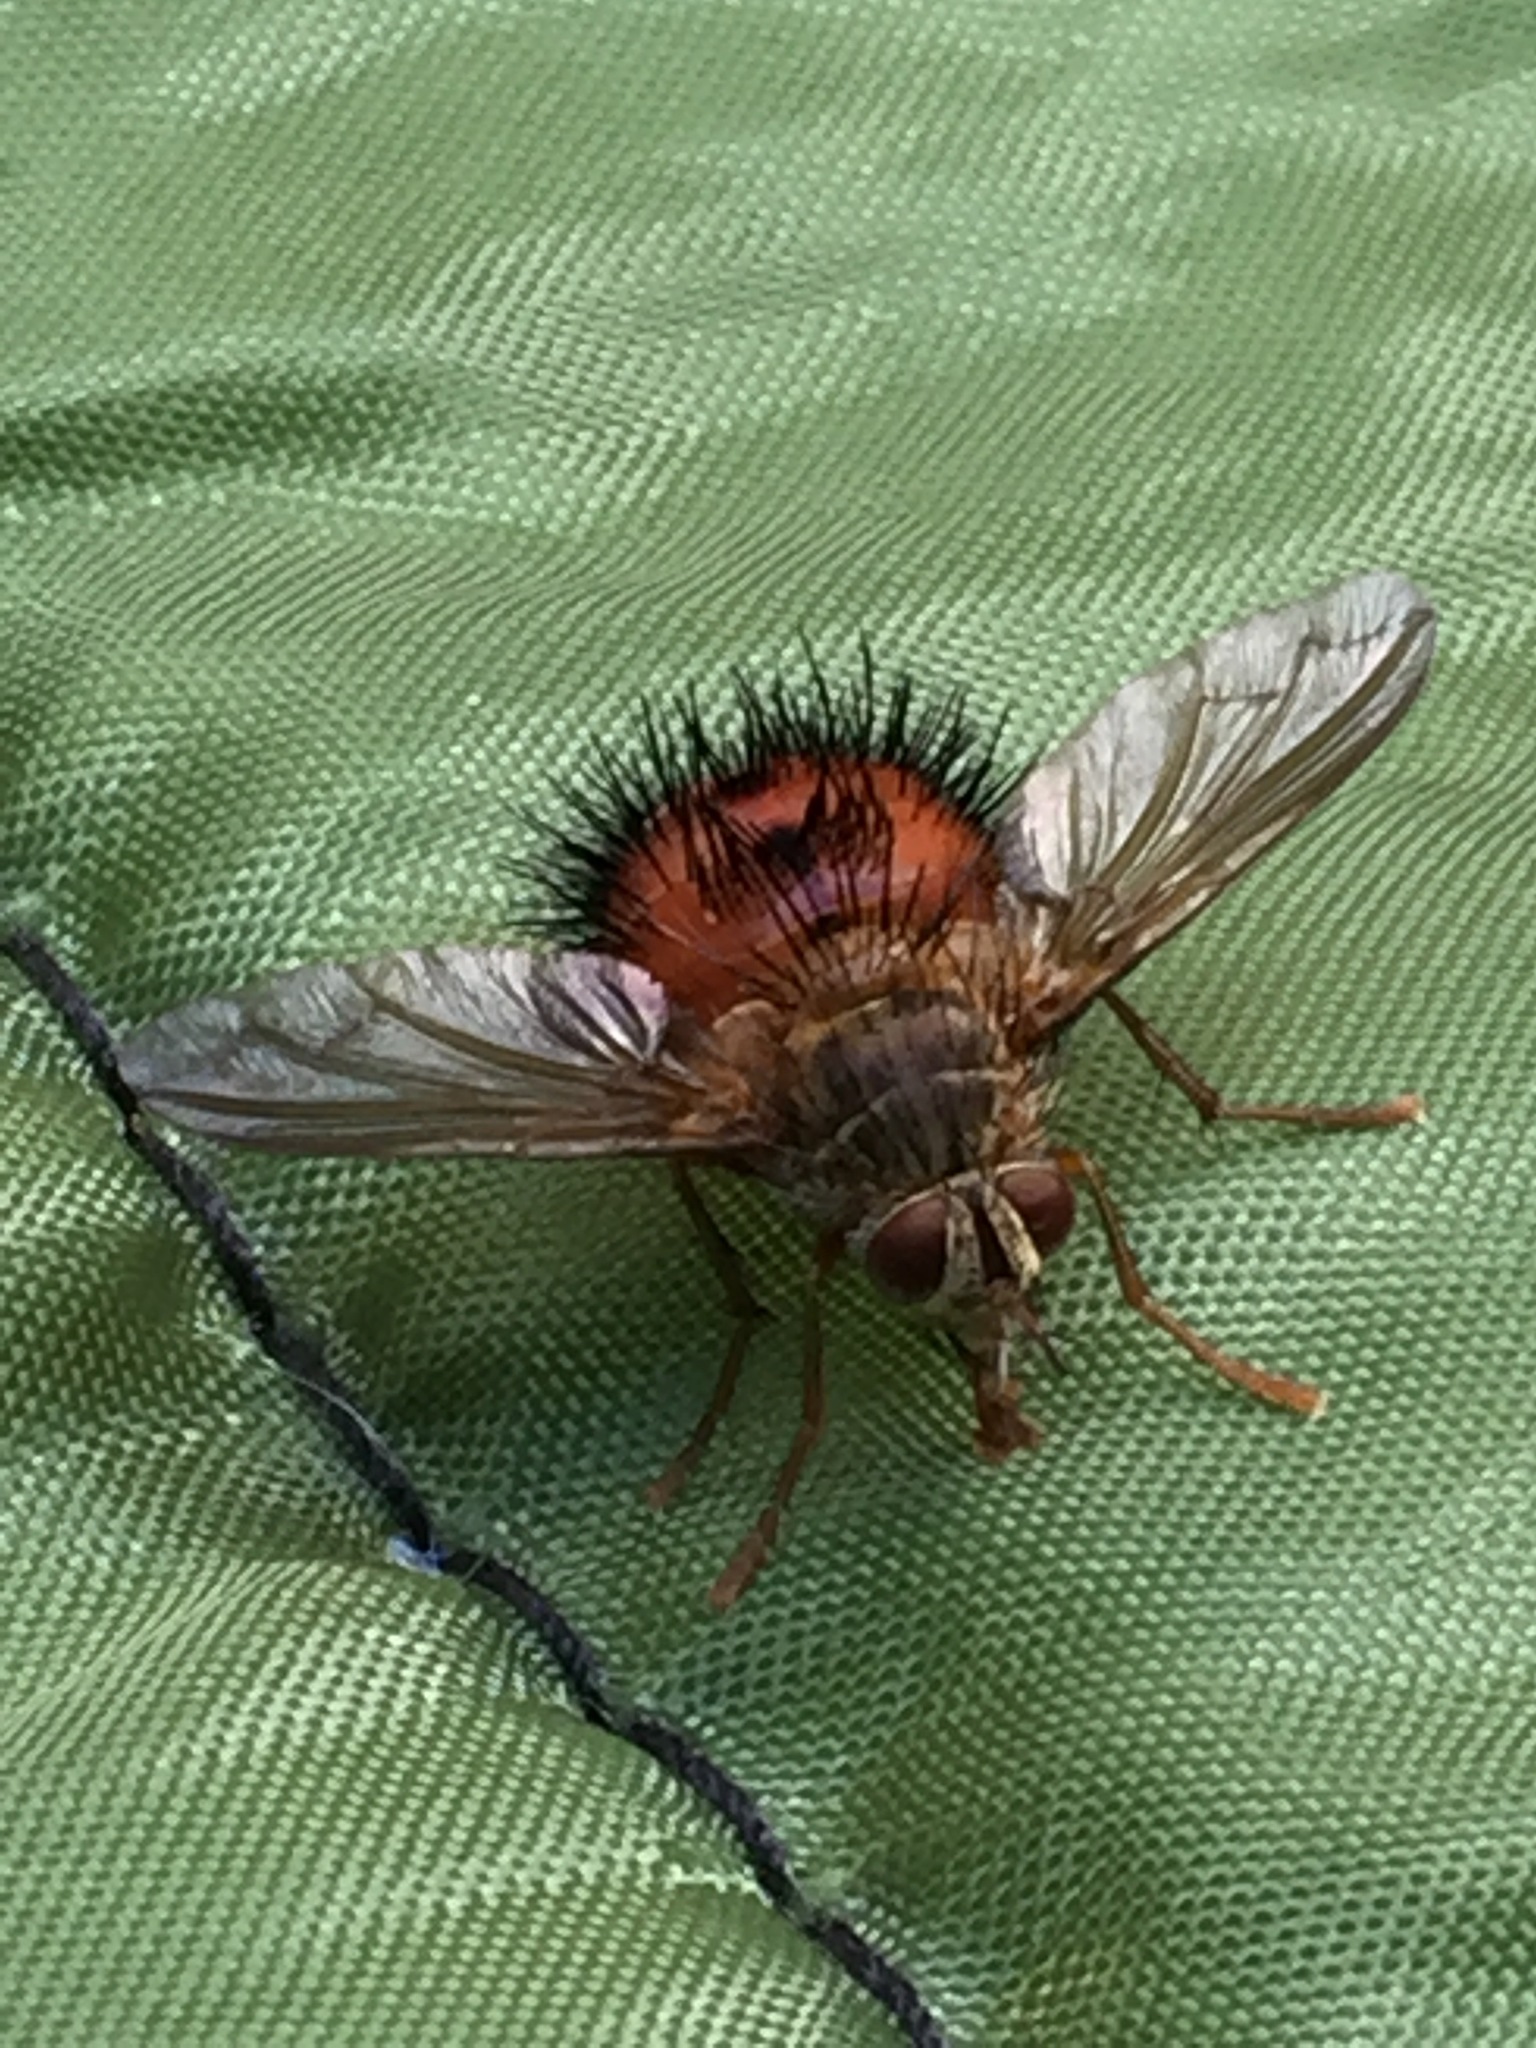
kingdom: Animalia
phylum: Arthropoda
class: Insecta
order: Diptera
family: Tachinidae
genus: Hystricia
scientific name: Hystricia abrupta
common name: Tomato bristle fly
